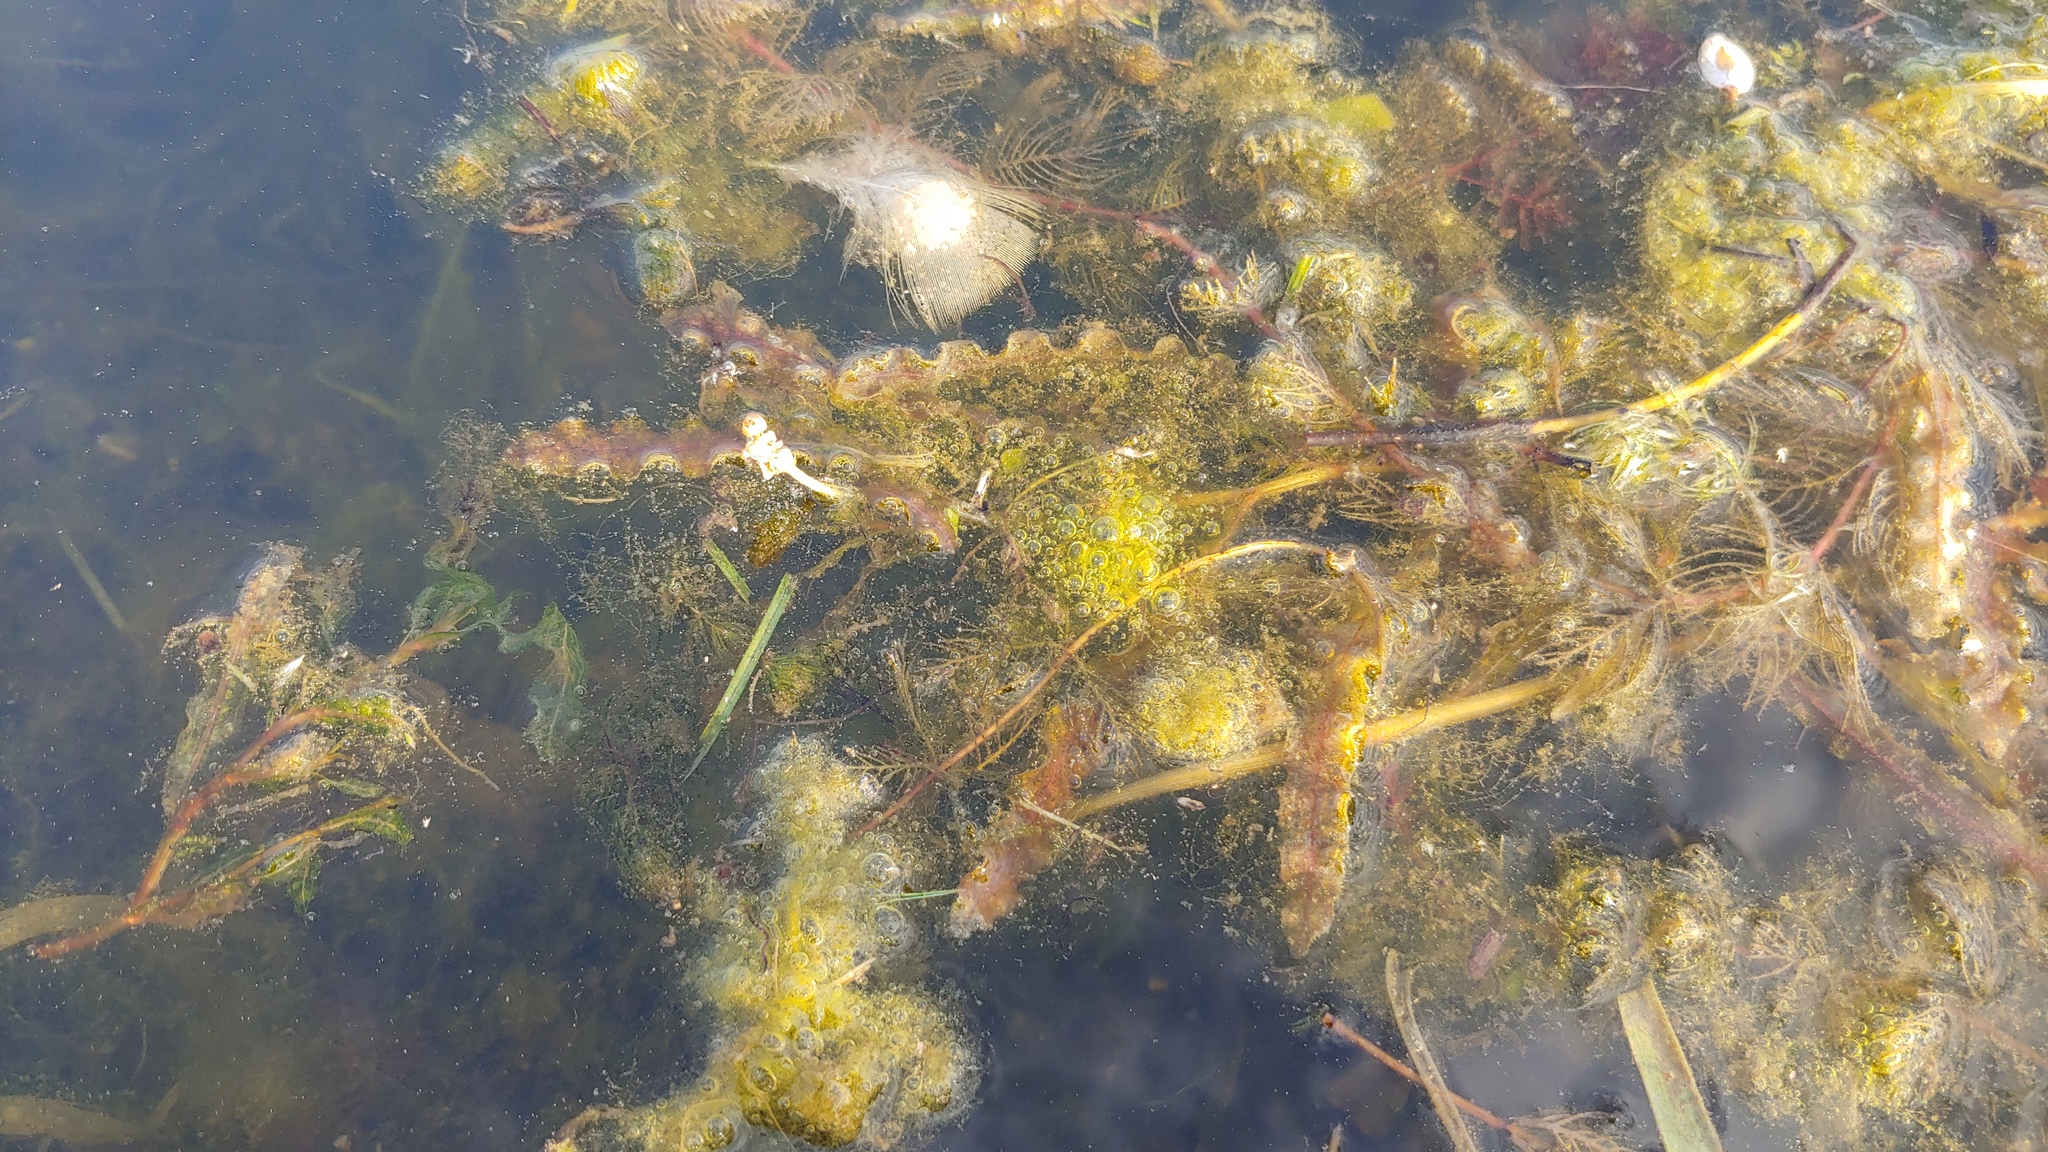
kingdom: Plantae
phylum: Tracheophyta
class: Liliopsida
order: Alismatales
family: Potamogetonaceae
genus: Potamogeton
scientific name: Potamogeton crispus
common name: Curled pondweed
